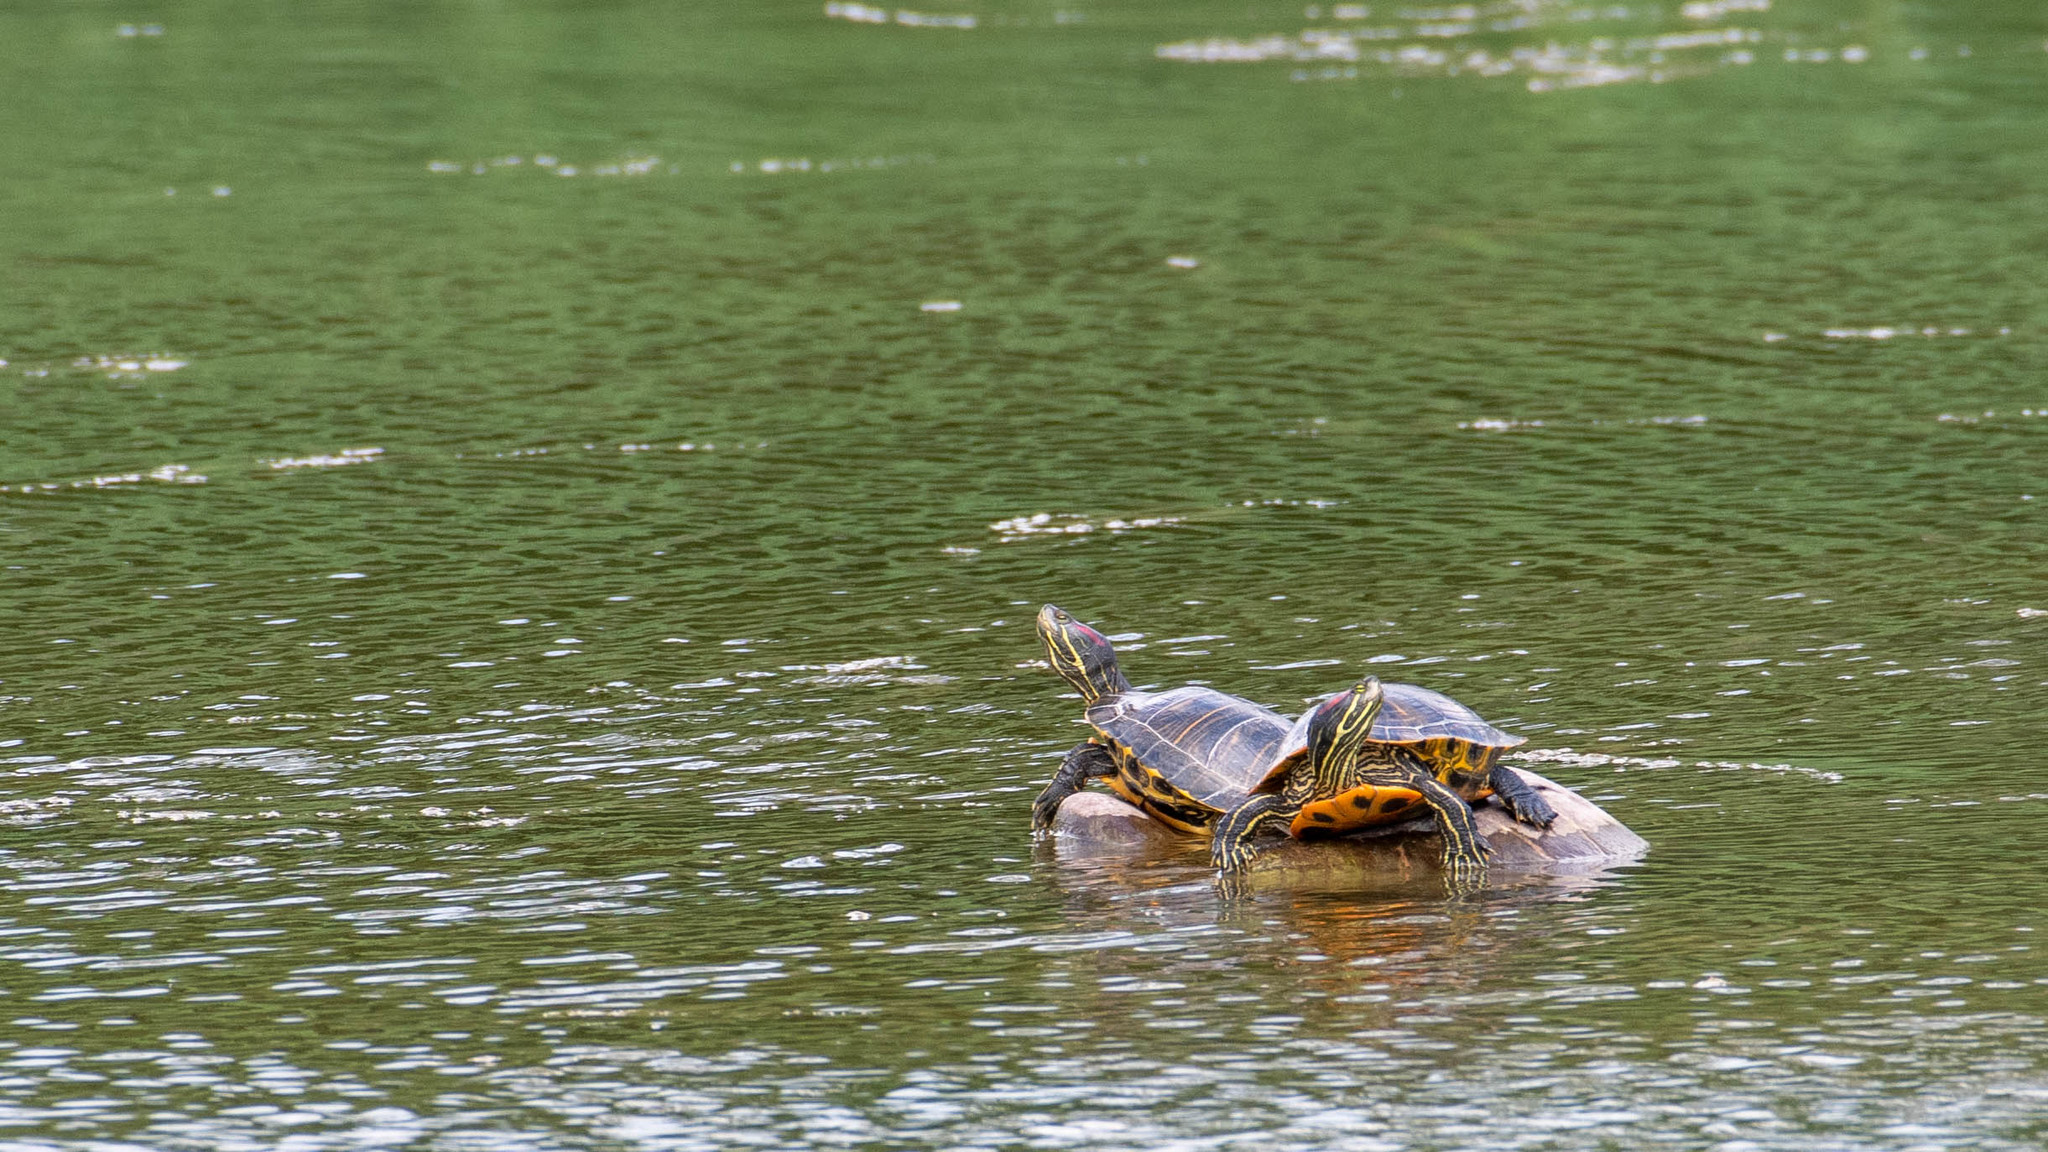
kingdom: Animalia
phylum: Chordata
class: Testudines
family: Emydidae
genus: Trachemys
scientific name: Trachemys scripta
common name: Slider
